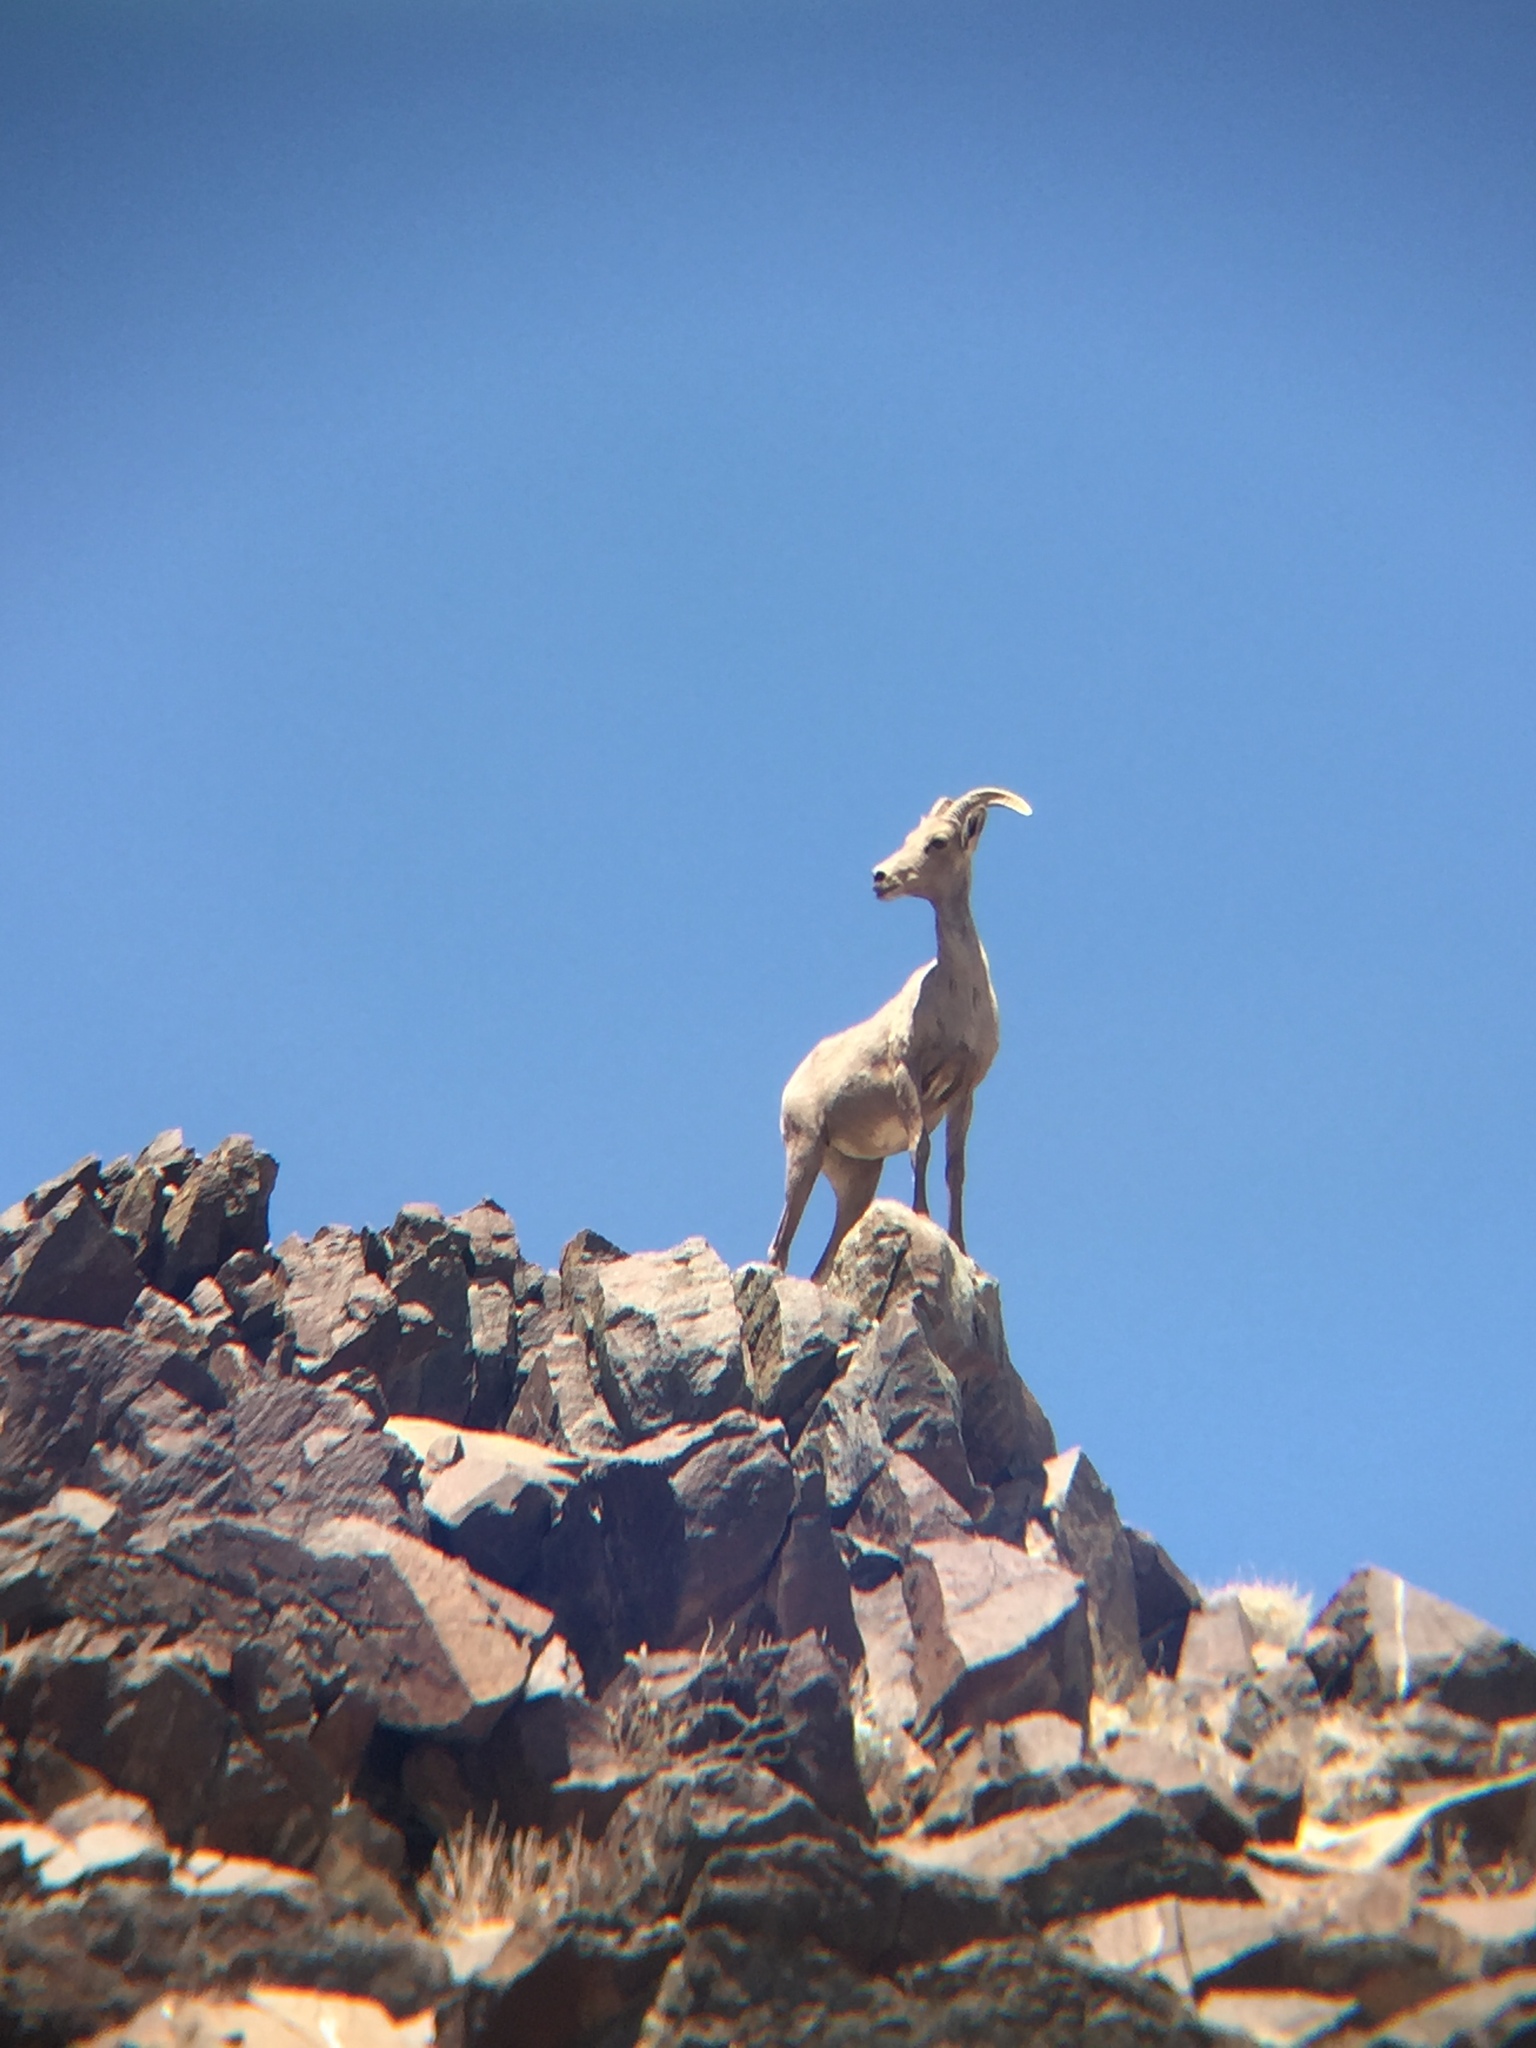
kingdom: Animalia
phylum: Chordata
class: Mammalia
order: Artiodactyla
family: Bovidae
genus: Ovis
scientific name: Ovis canadensis
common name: Bighorn sheep
